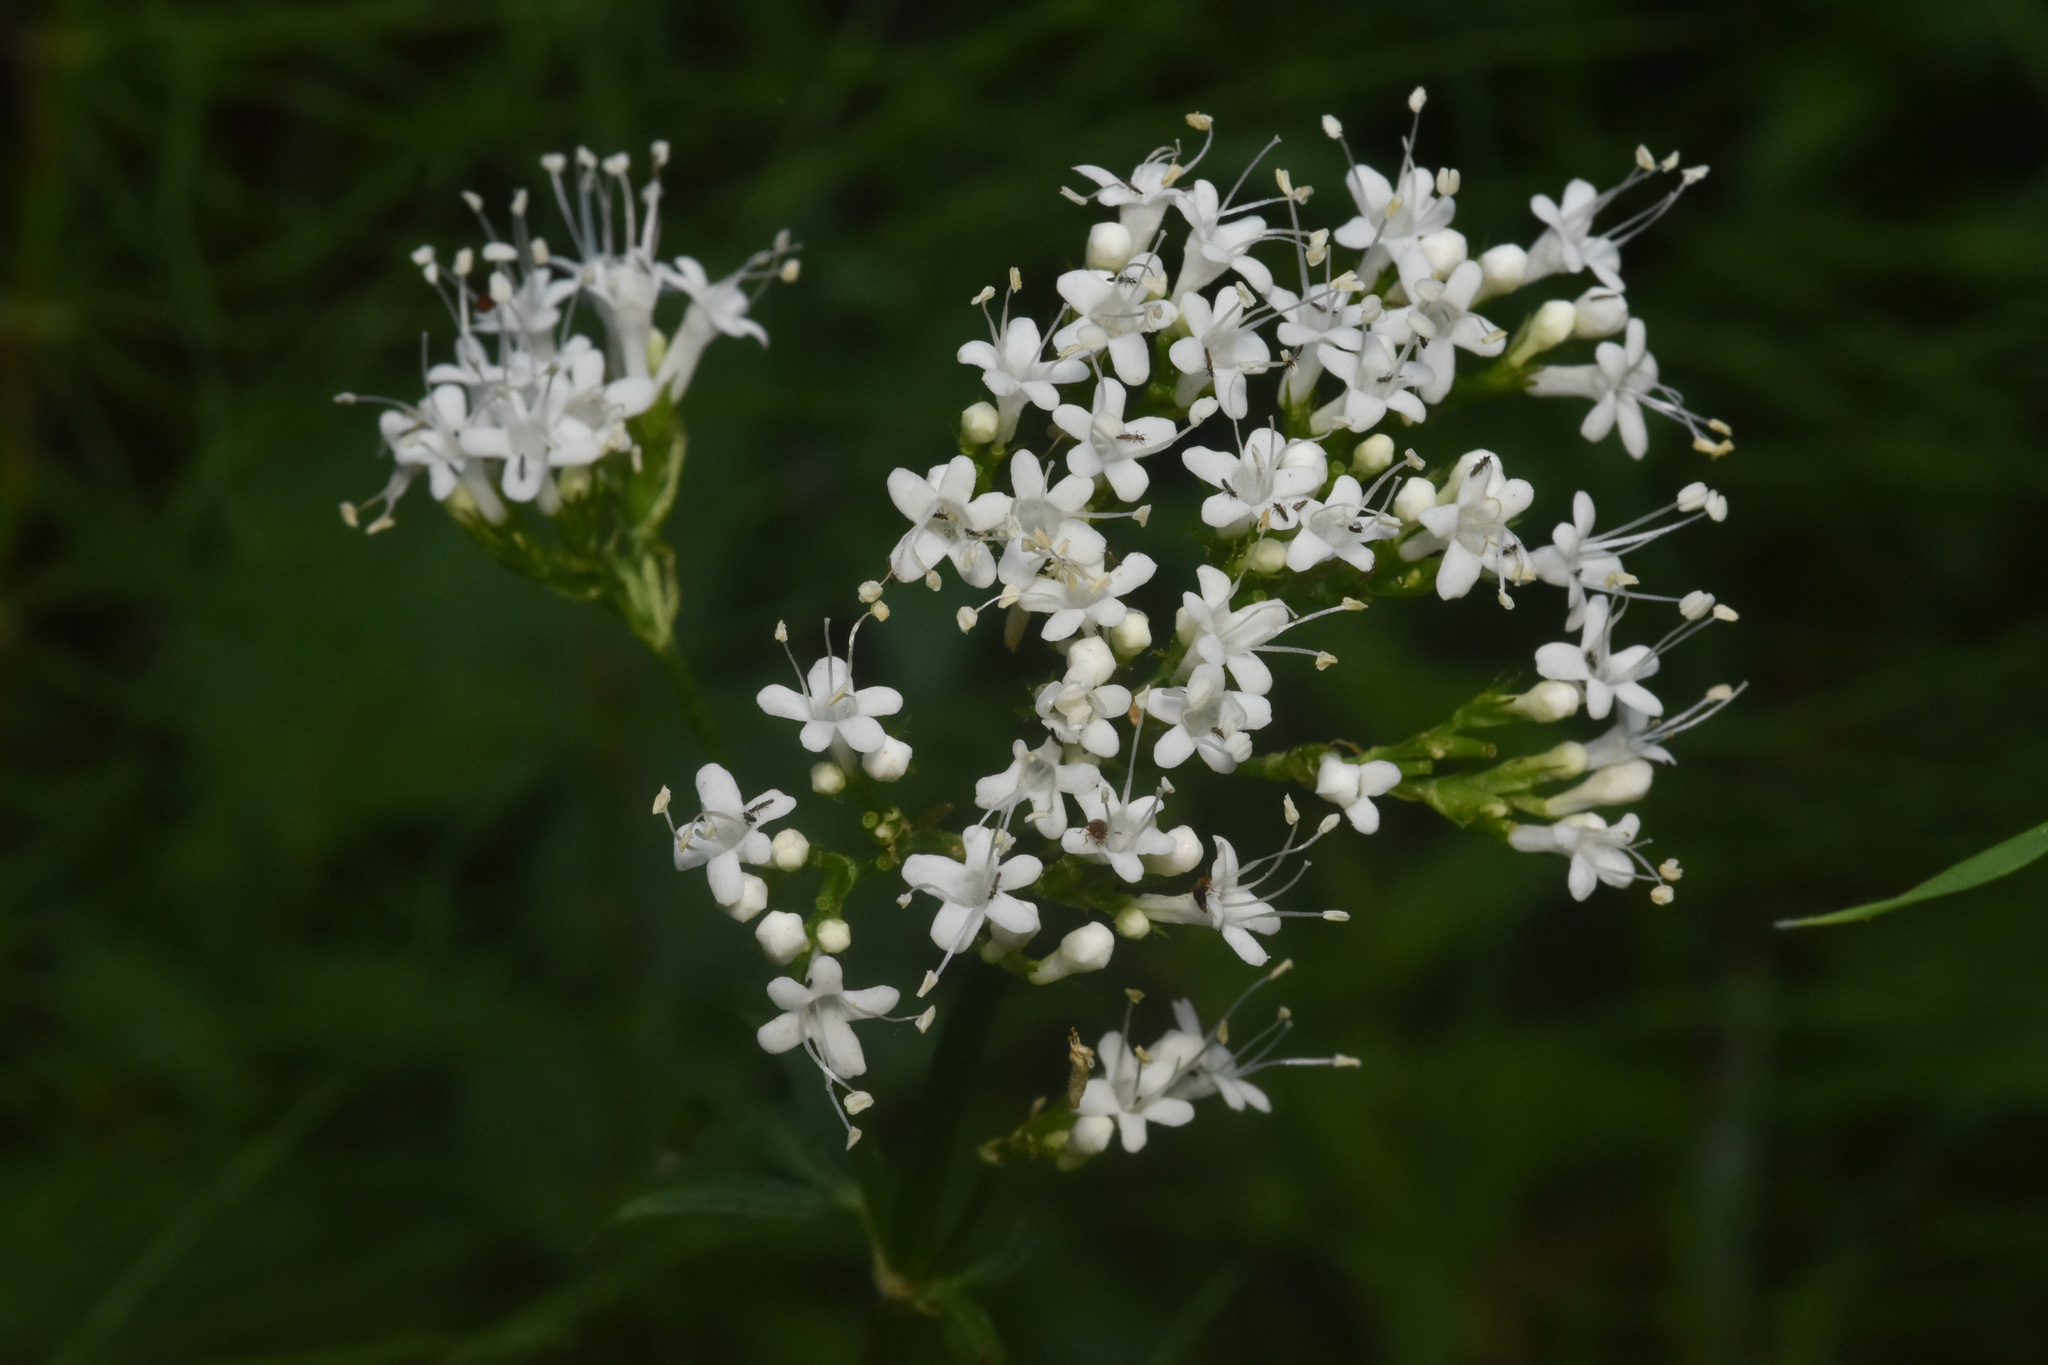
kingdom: Plantae
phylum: Tracheophyta
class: Magnoliopsida
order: Dipsacales
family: Caprifoliaceae
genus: Valeriana
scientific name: Valeriana sitchensis
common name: Pacific valerian
